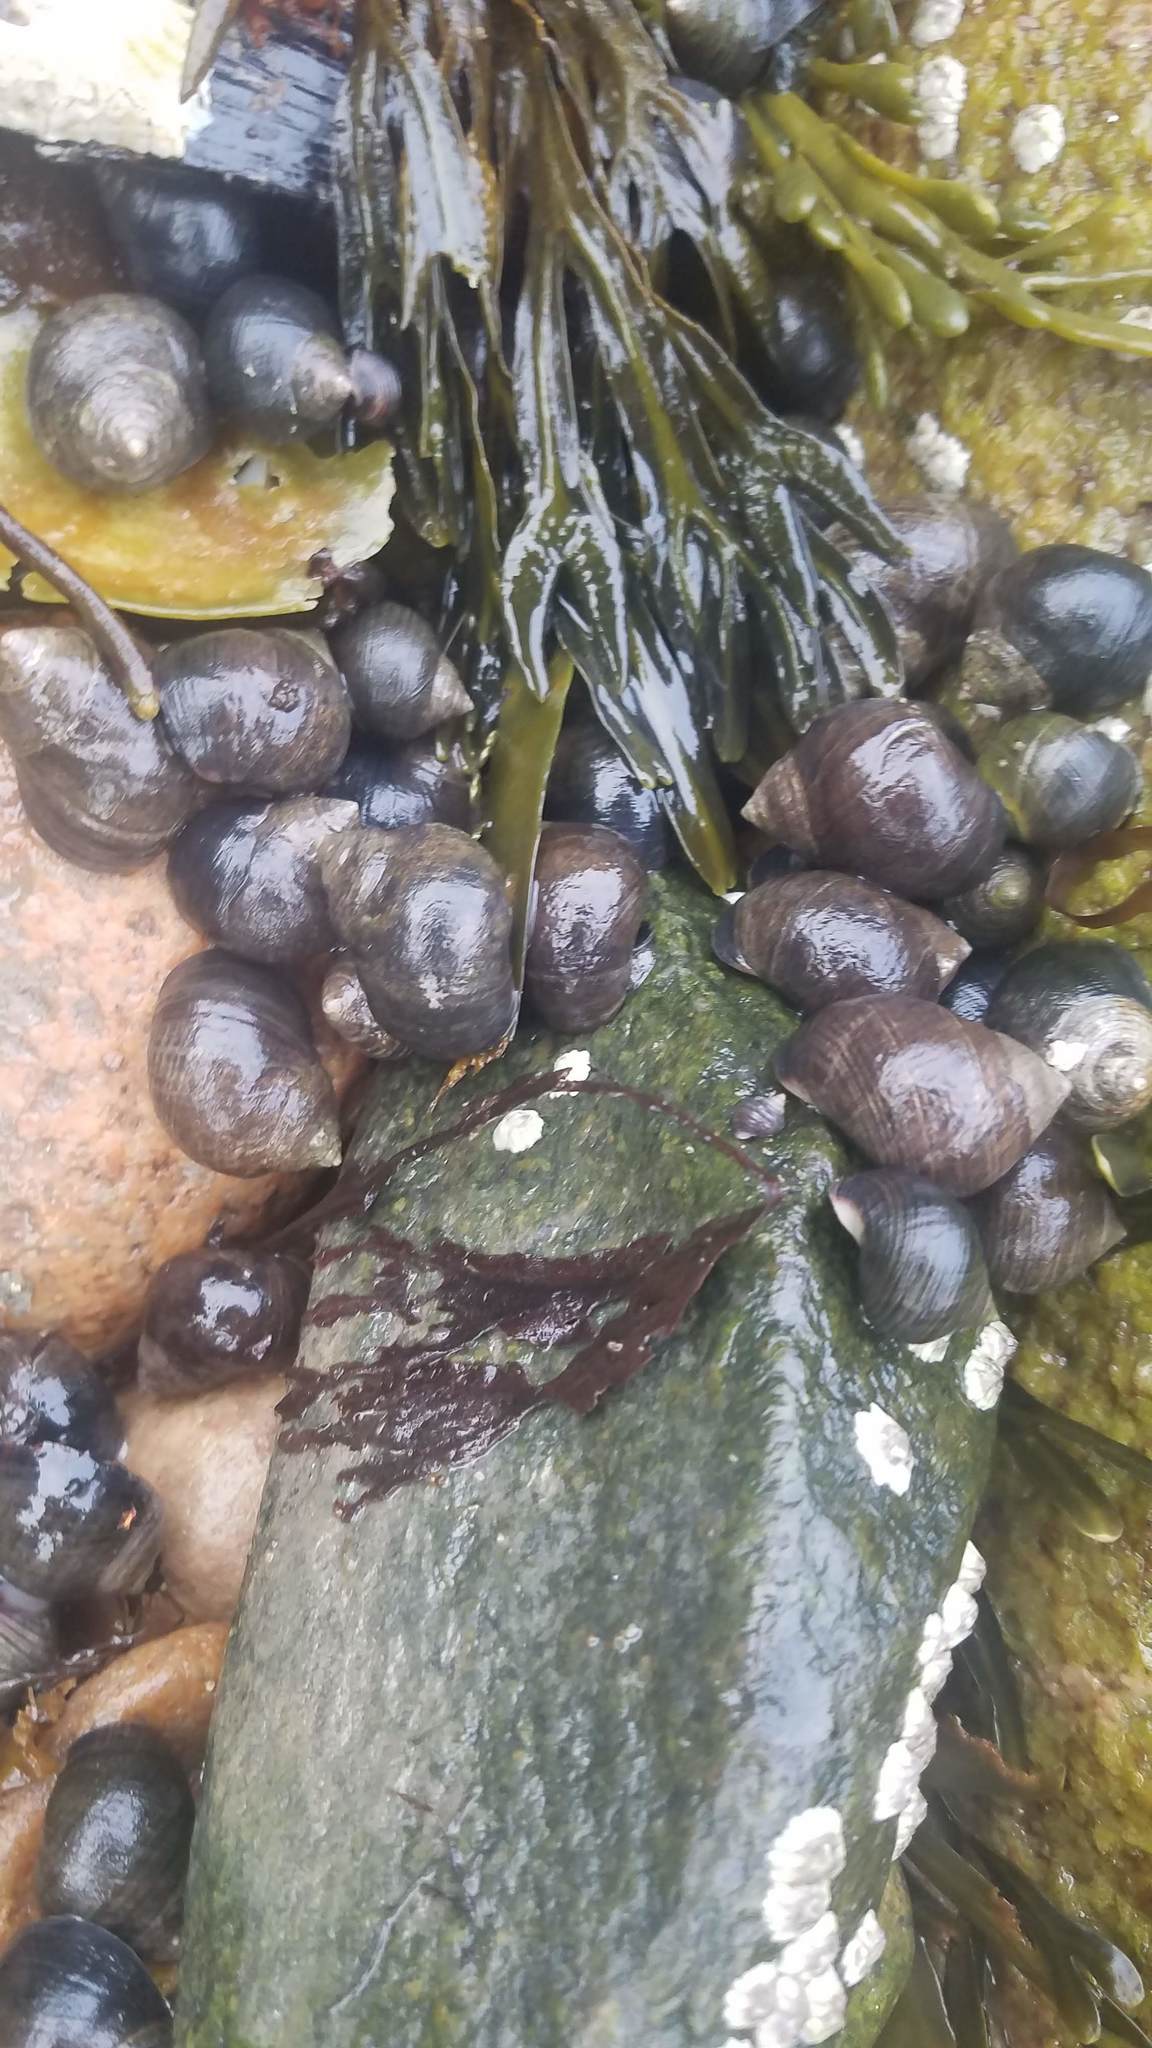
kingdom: Animalia
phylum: Mollusca
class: Gastropoda
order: Littorinimorpha
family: Littorinidae
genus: Littorina
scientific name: Littorina littorea
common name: Common periwinkle
